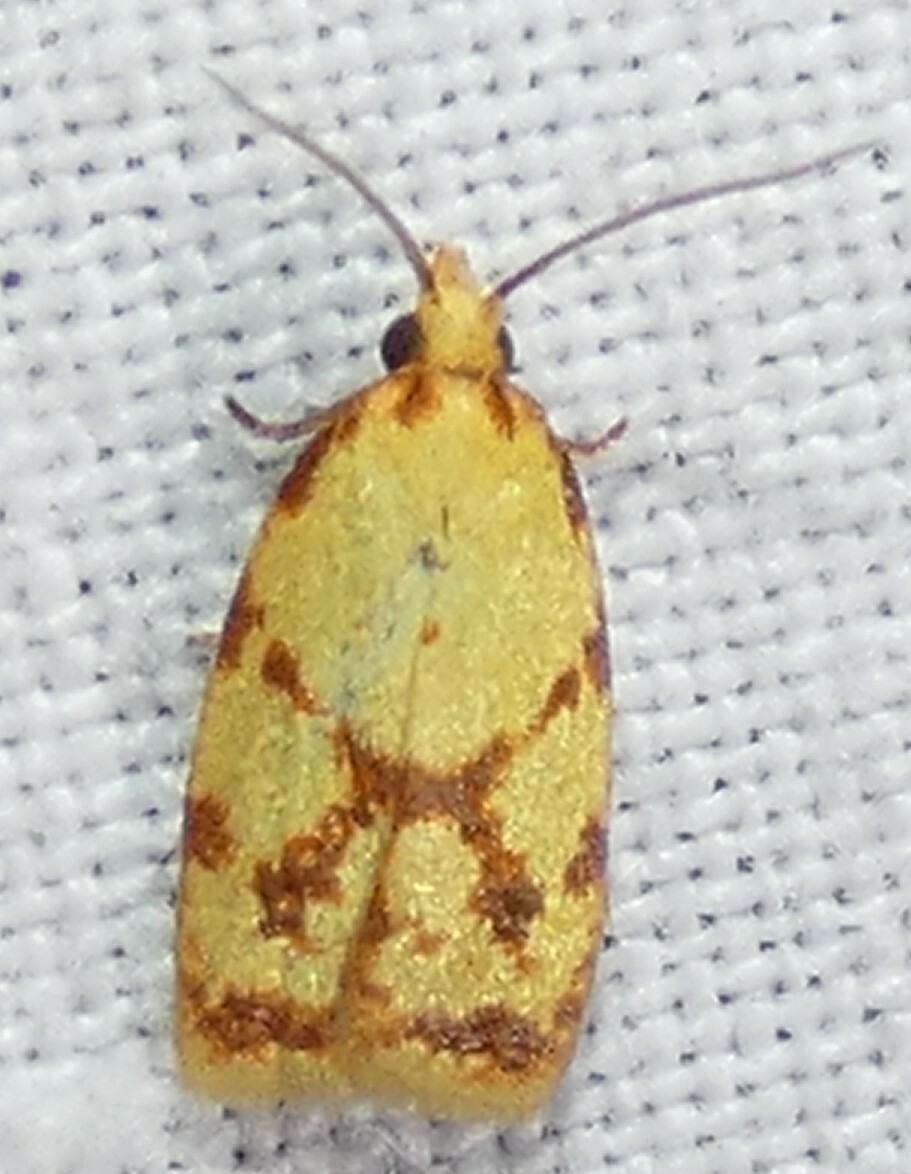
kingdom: Animalia
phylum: Arthropoda
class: Insecta
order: Lepidoptera
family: Tortricidae
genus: Sparganothis
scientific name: Sparganothis sulfureana
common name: Sparganothis fruitworm moth
